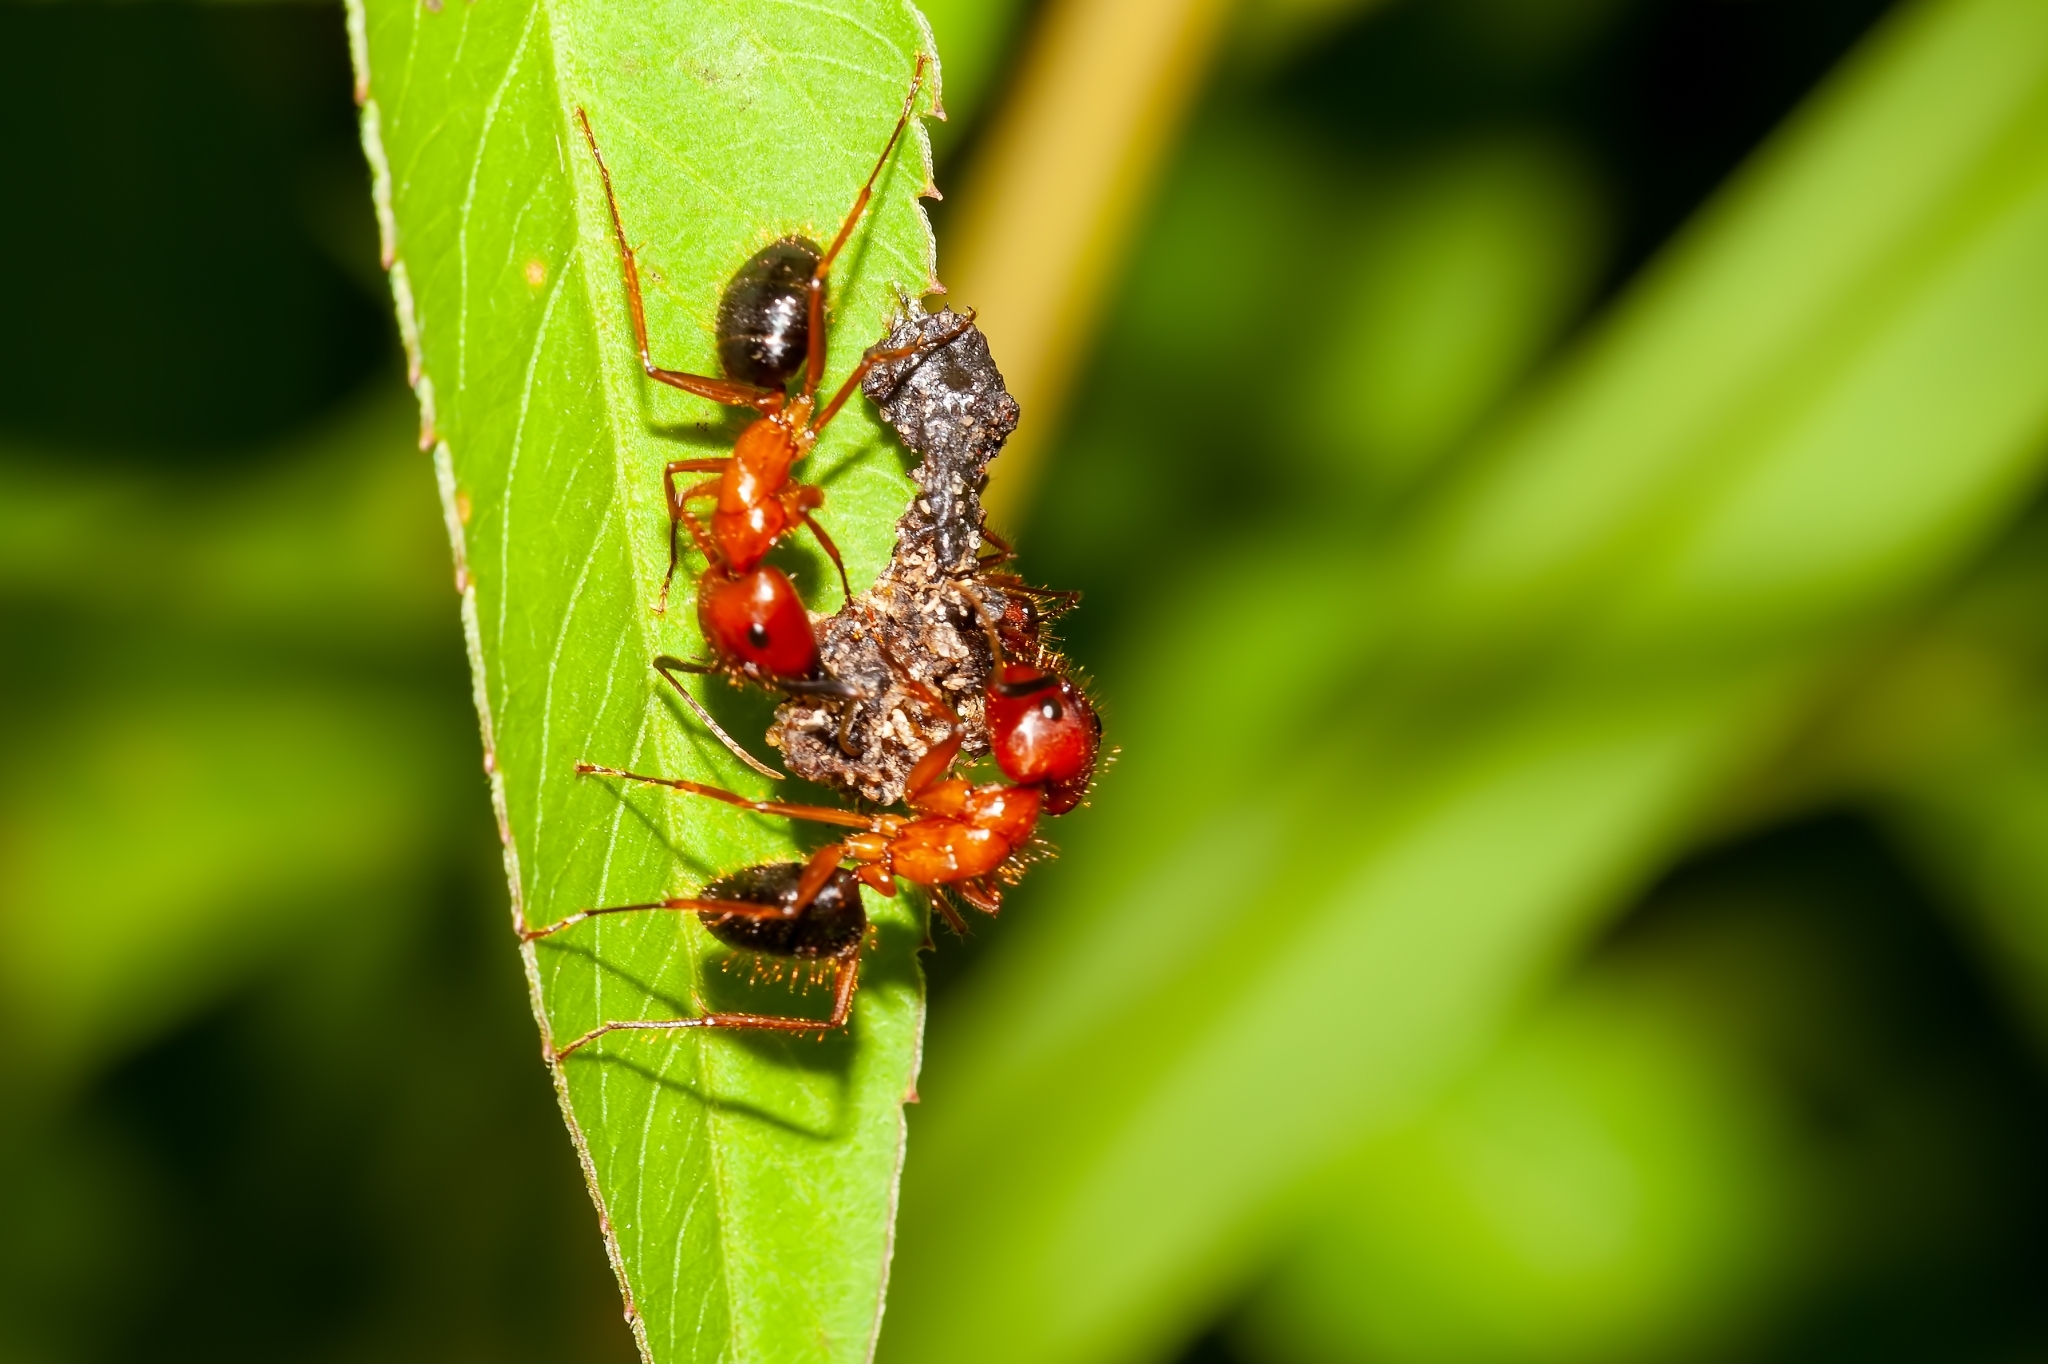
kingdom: Animalia
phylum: Arthropoda
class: Insecta
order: Hymenoptera
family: Formicidae
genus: Camponotus
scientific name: Camponotus floridanus
